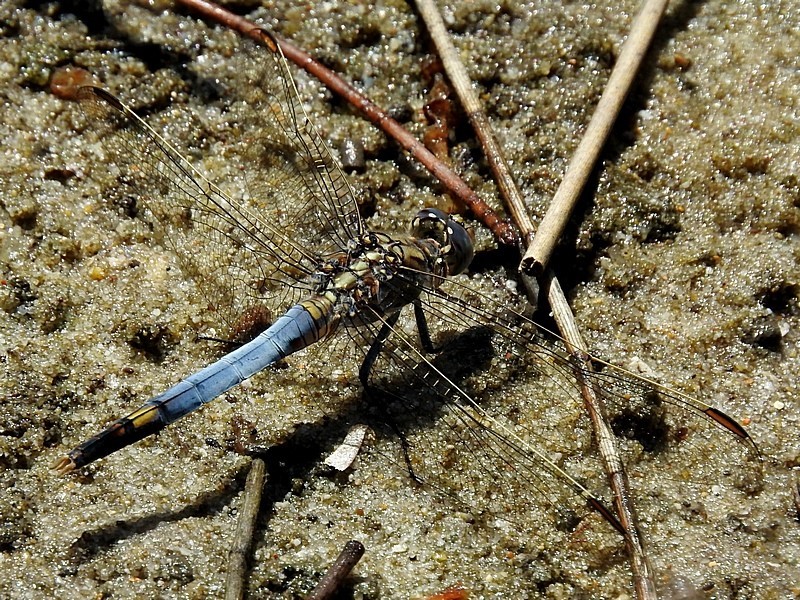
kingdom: Animalia
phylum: Arthropoda
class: Insecta
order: Odonata
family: Libellulidae
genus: Orthetrum
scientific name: Orthetrum caledonicum
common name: Blue skimmer
